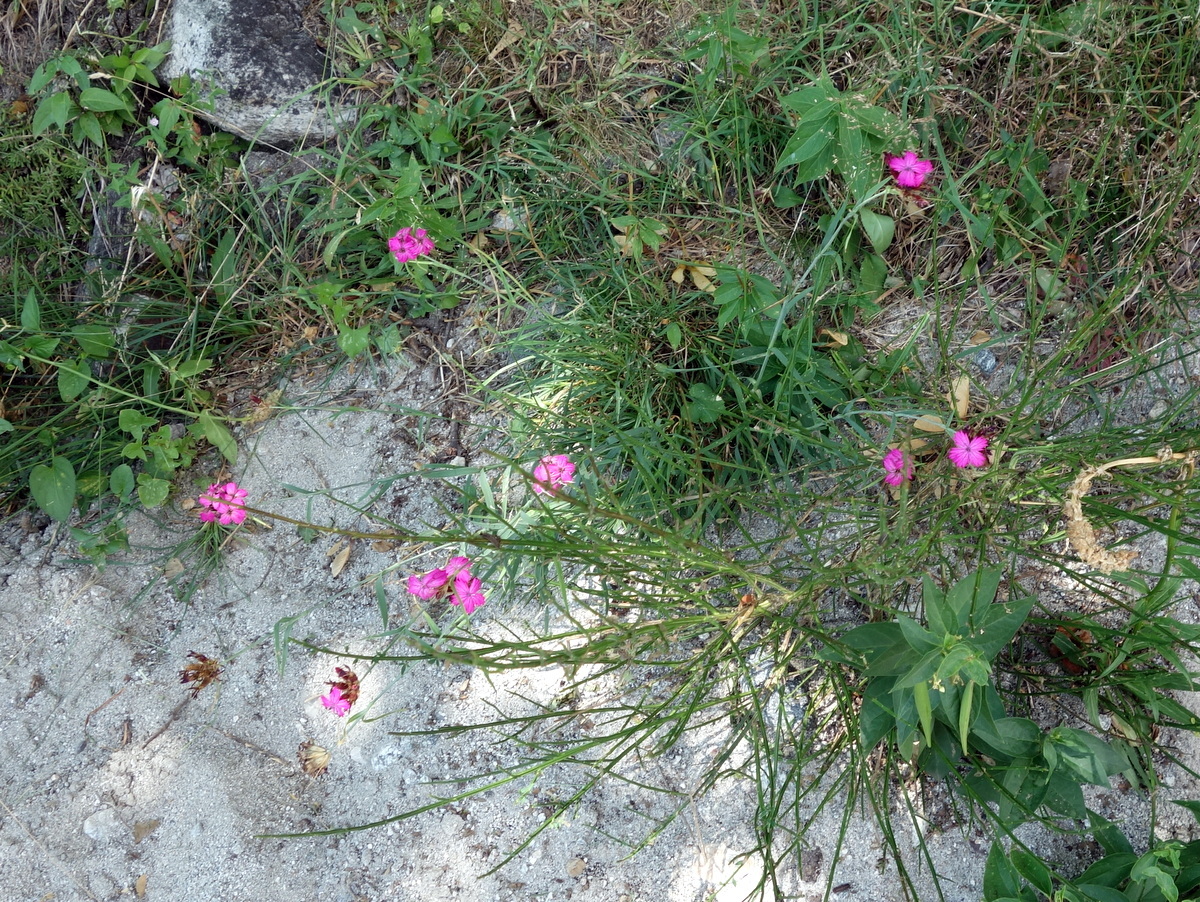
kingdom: Plantae
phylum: Tracheophyta
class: Magnoliopsida
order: Caryophyllales
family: Caryophyllaceae
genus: Dianthus
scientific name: Dianthus carthusianorum
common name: Carthusian pink
